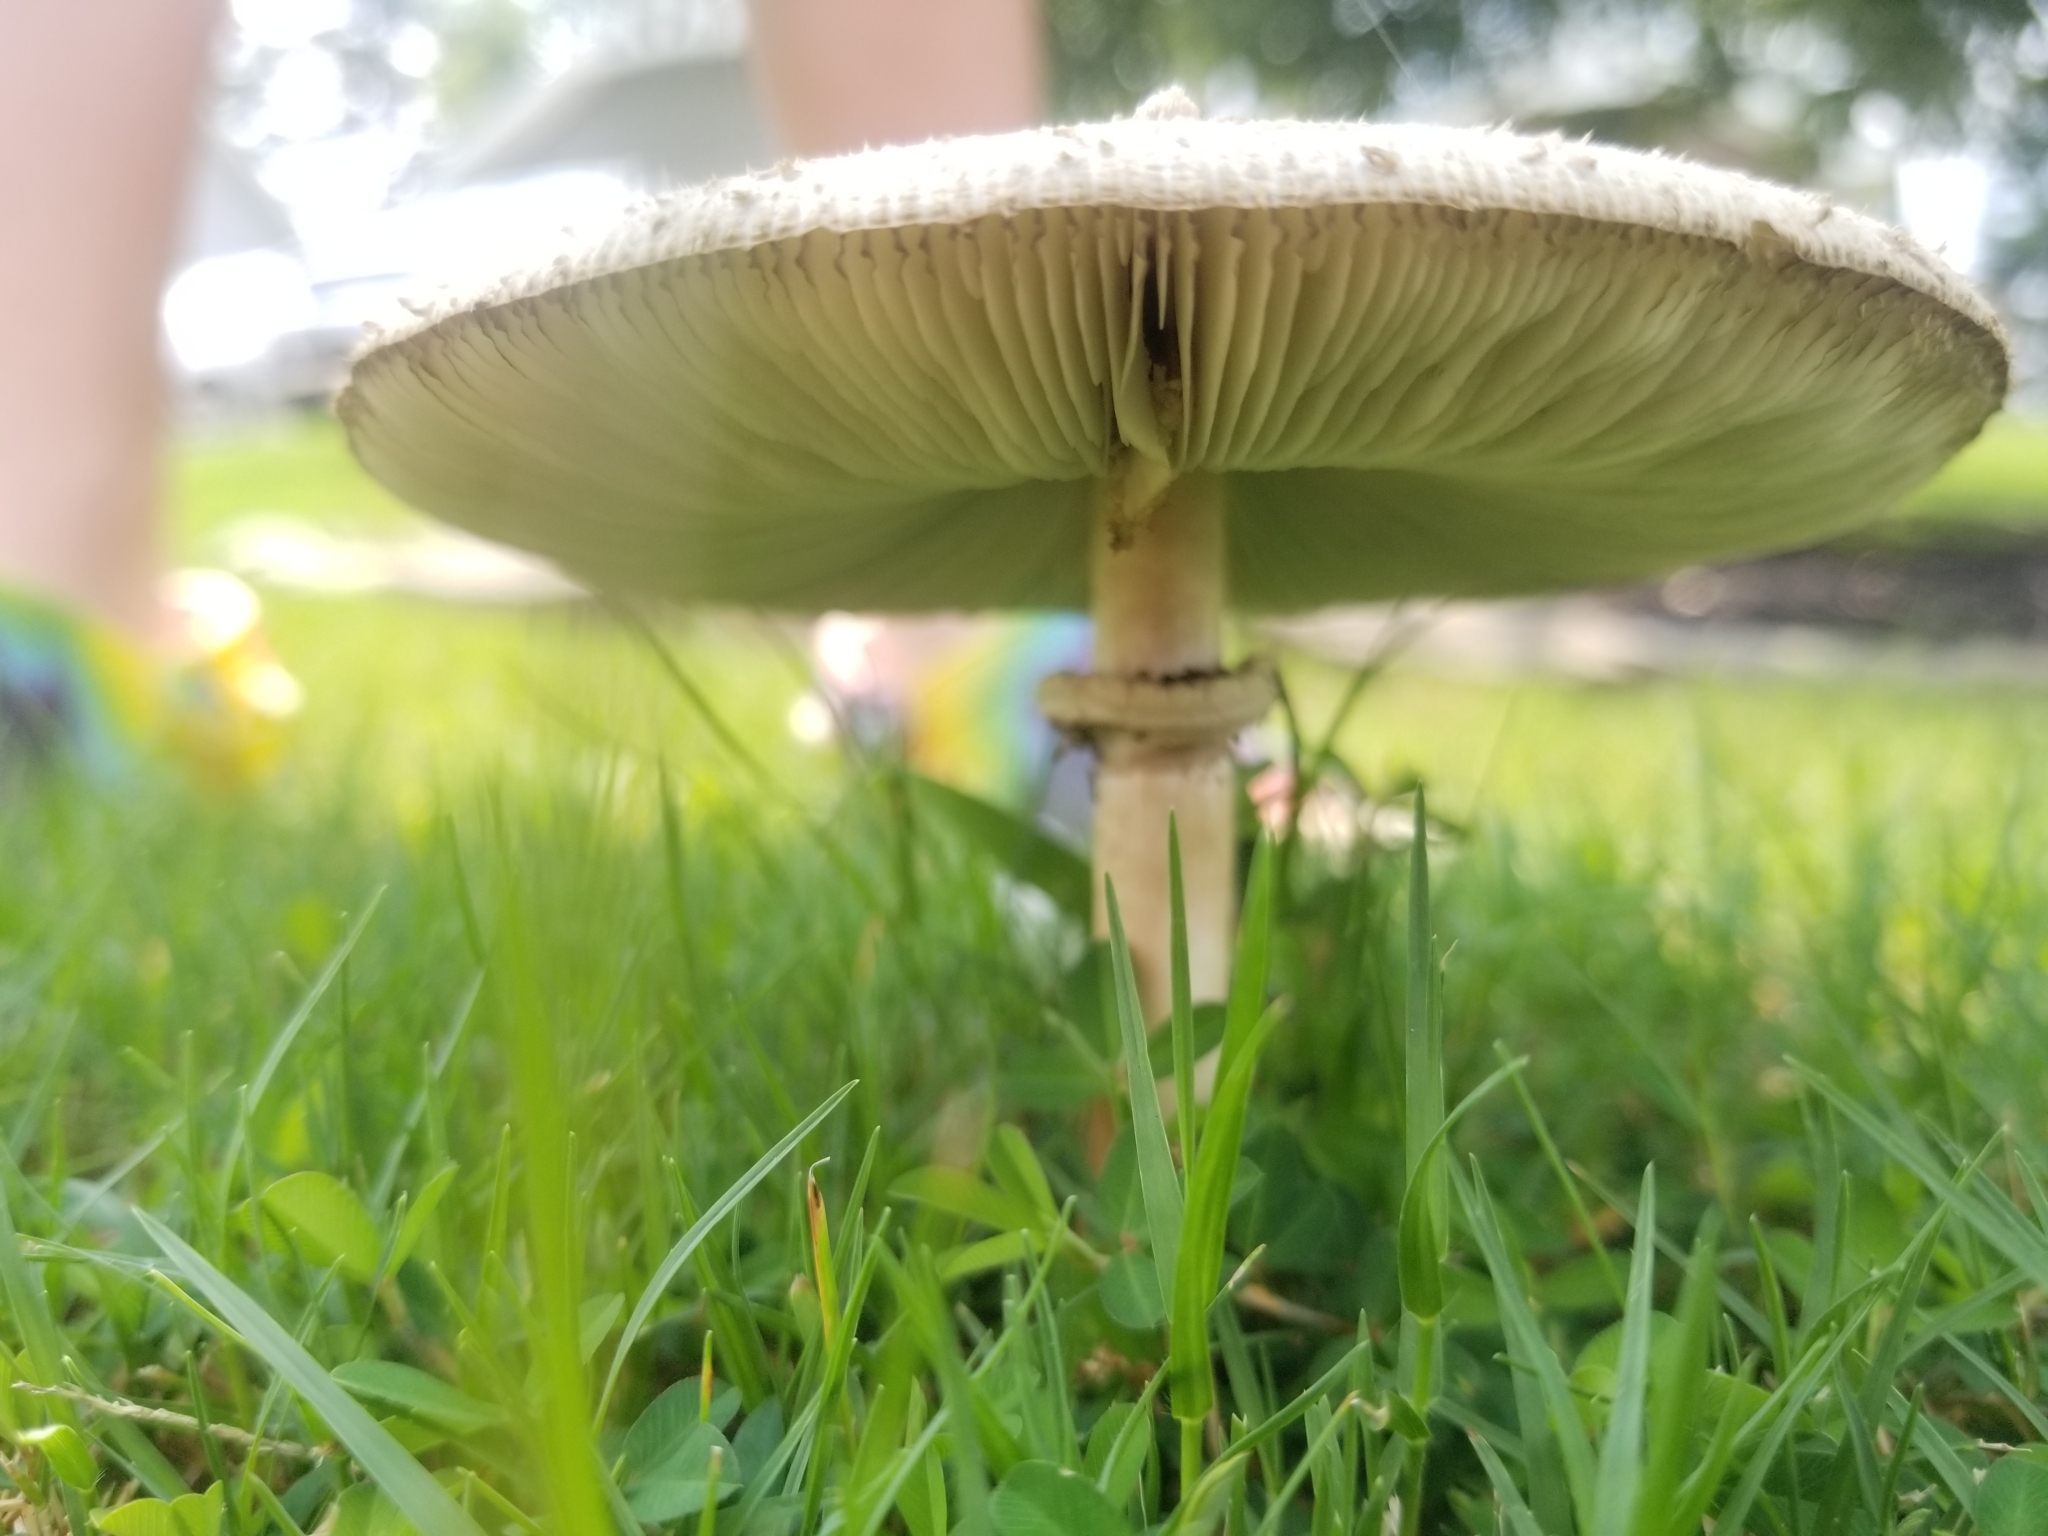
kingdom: Fungi
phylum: Basidiomycota
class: Agaricomycetes
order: Agaricales
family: Agaricaceae
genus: Chlorophyllum
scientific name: Chlorophyllum molybdites
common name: False parasol
